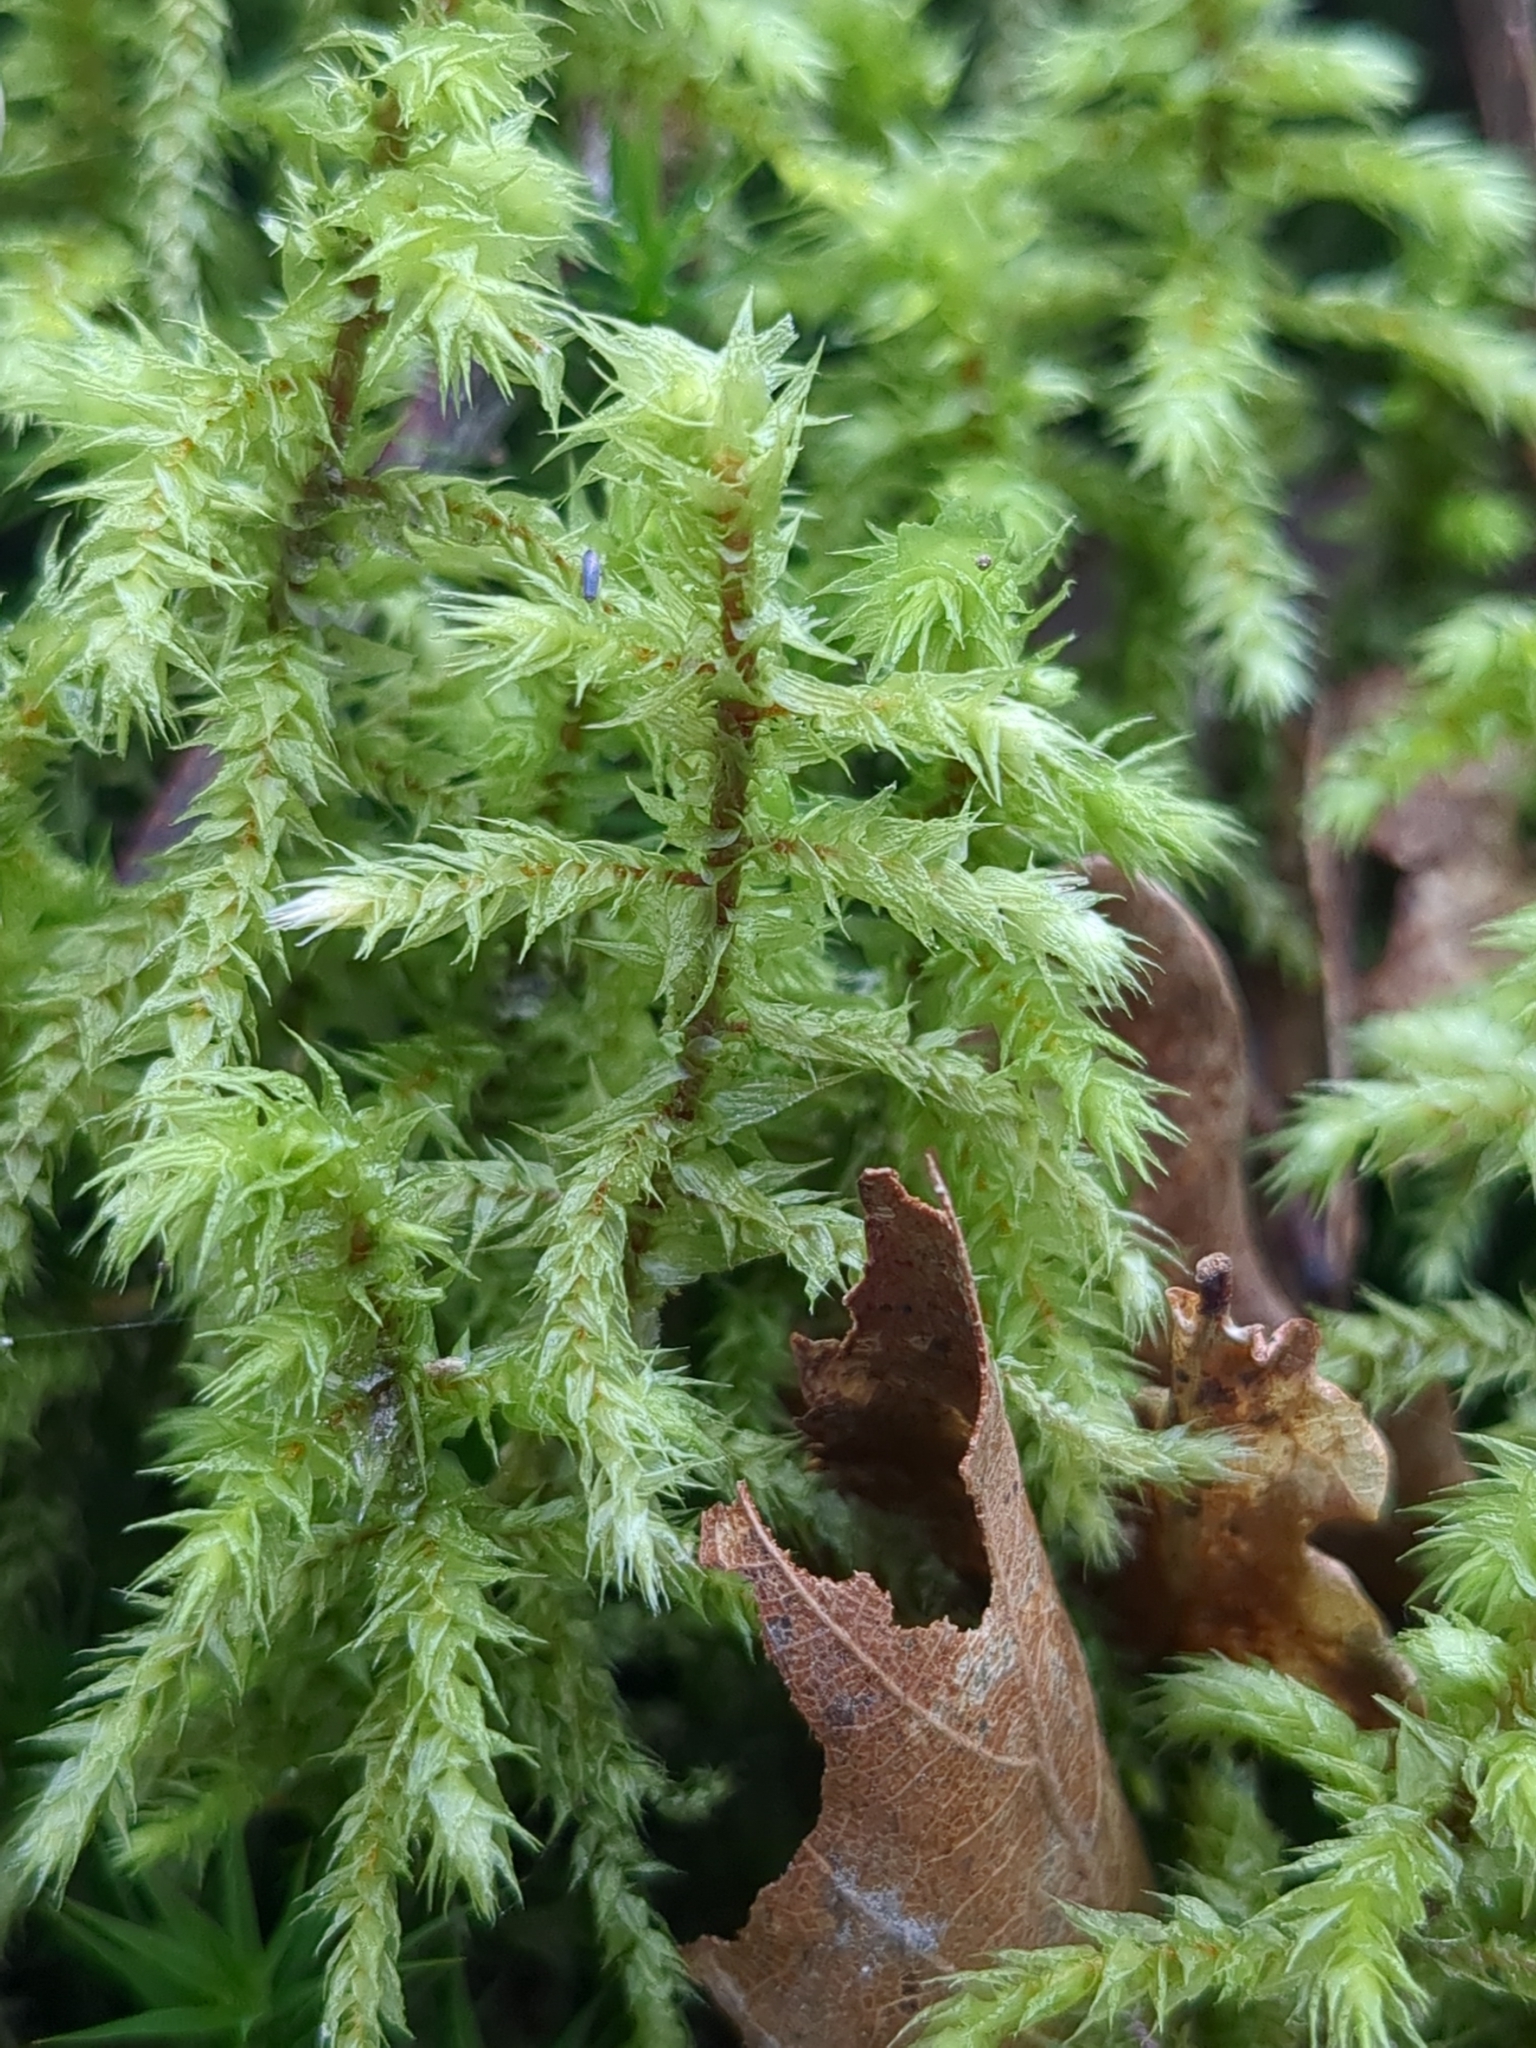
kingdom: Plantae
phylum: Bryophyta
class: Bryopsida
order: Hypnales
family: Hylocomiaceae
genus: Hylocomiadelphus
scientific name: Hylocomiadelphus triquetrus
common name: Rough goose neck moss
